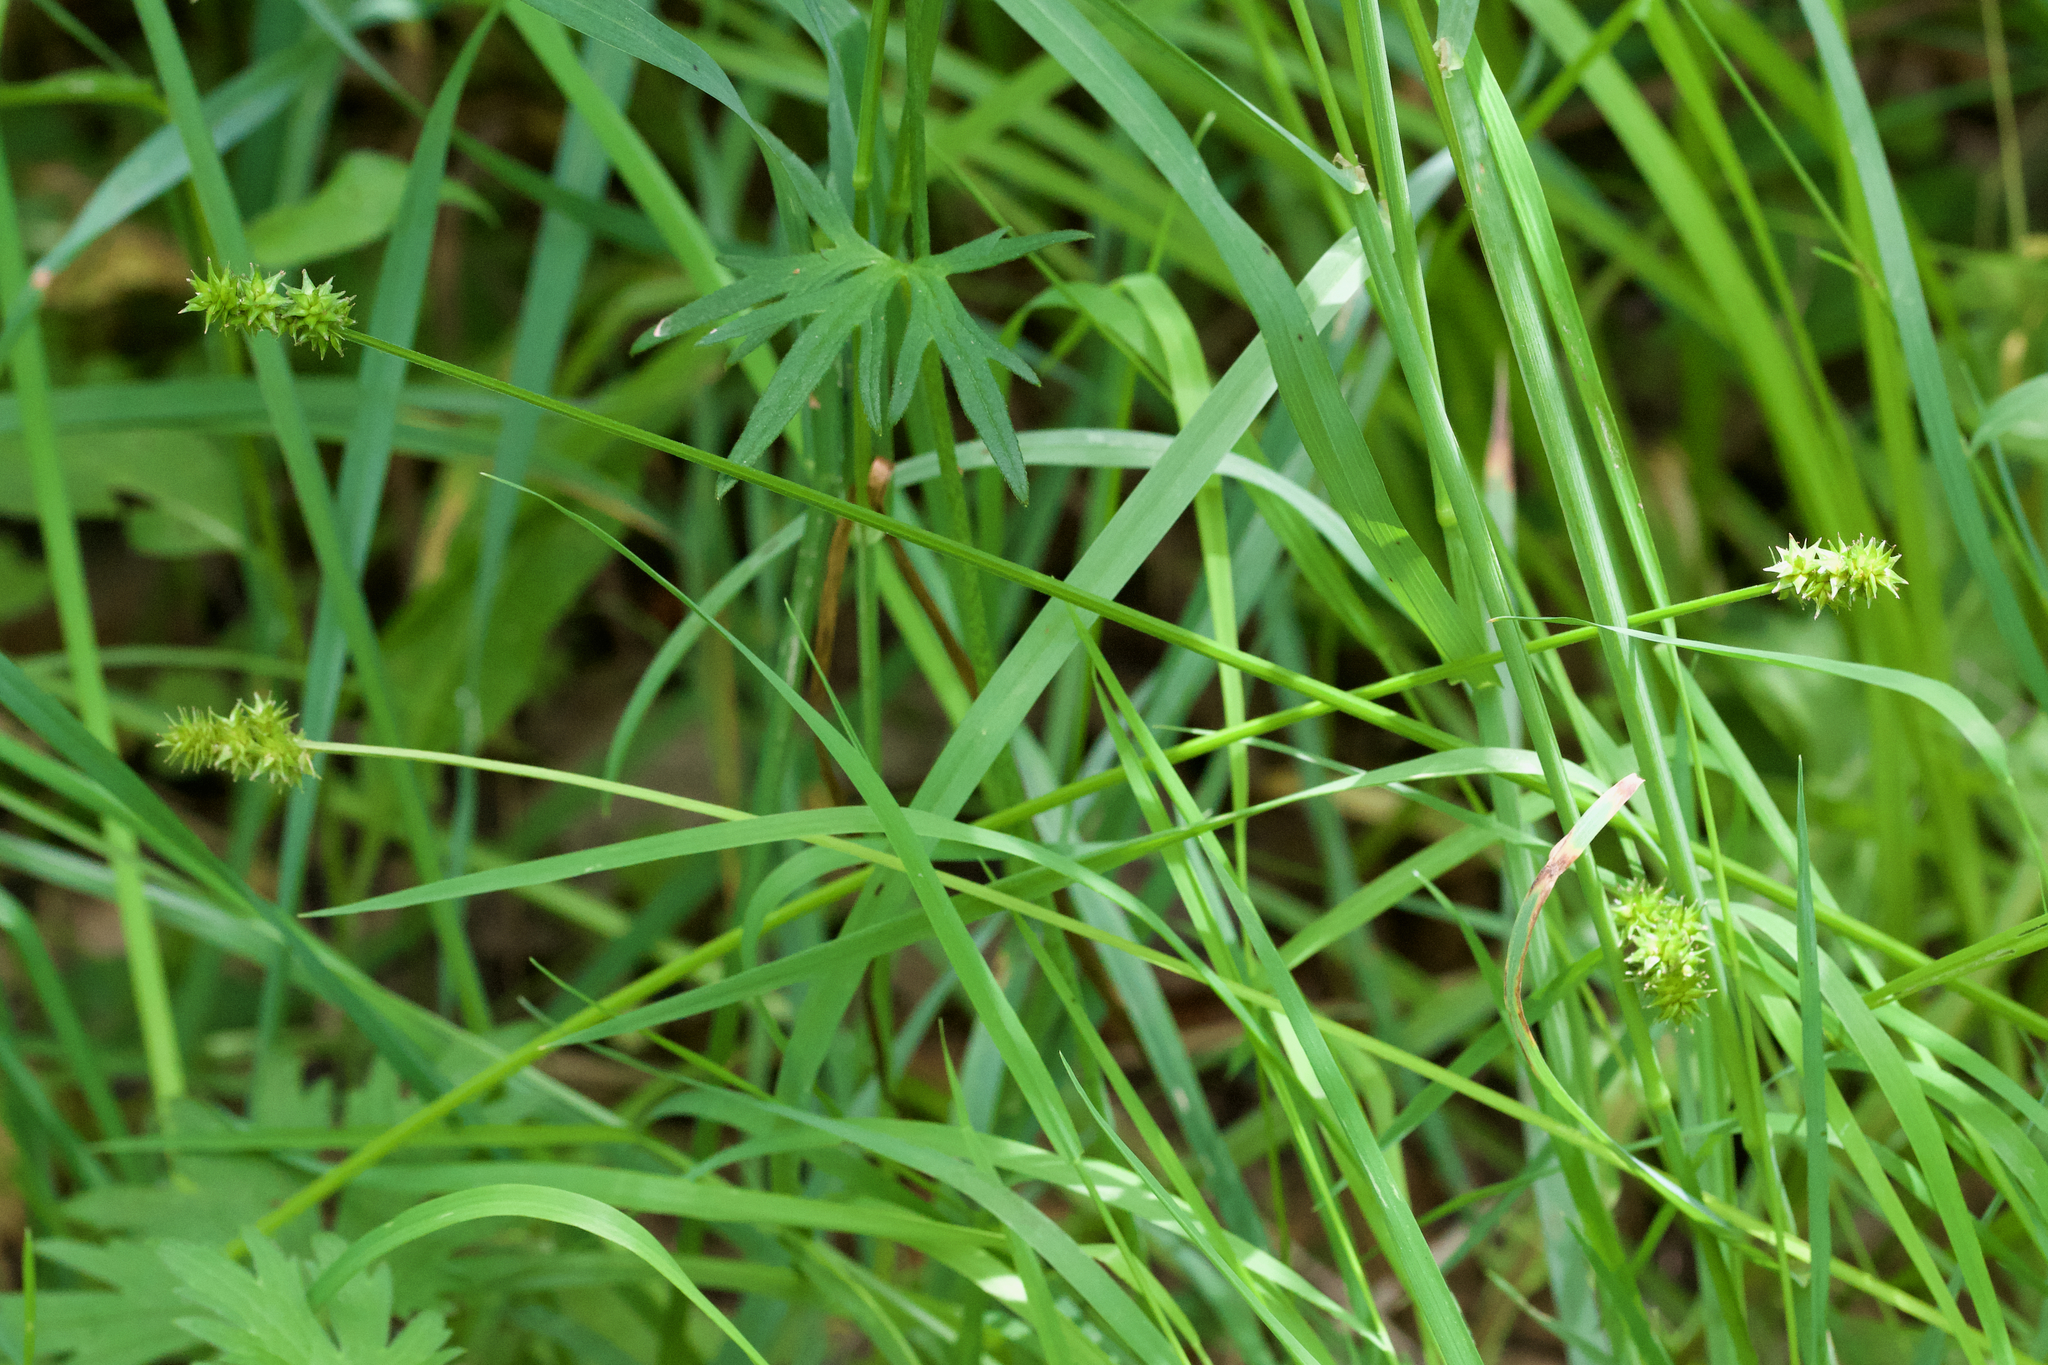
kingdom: Plantae
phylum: Tracheophyta
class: Liliopsida
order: Poales
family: Cyperaceae
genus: Carex
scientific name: Carex cephalophora
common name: Oval-headed sedge
